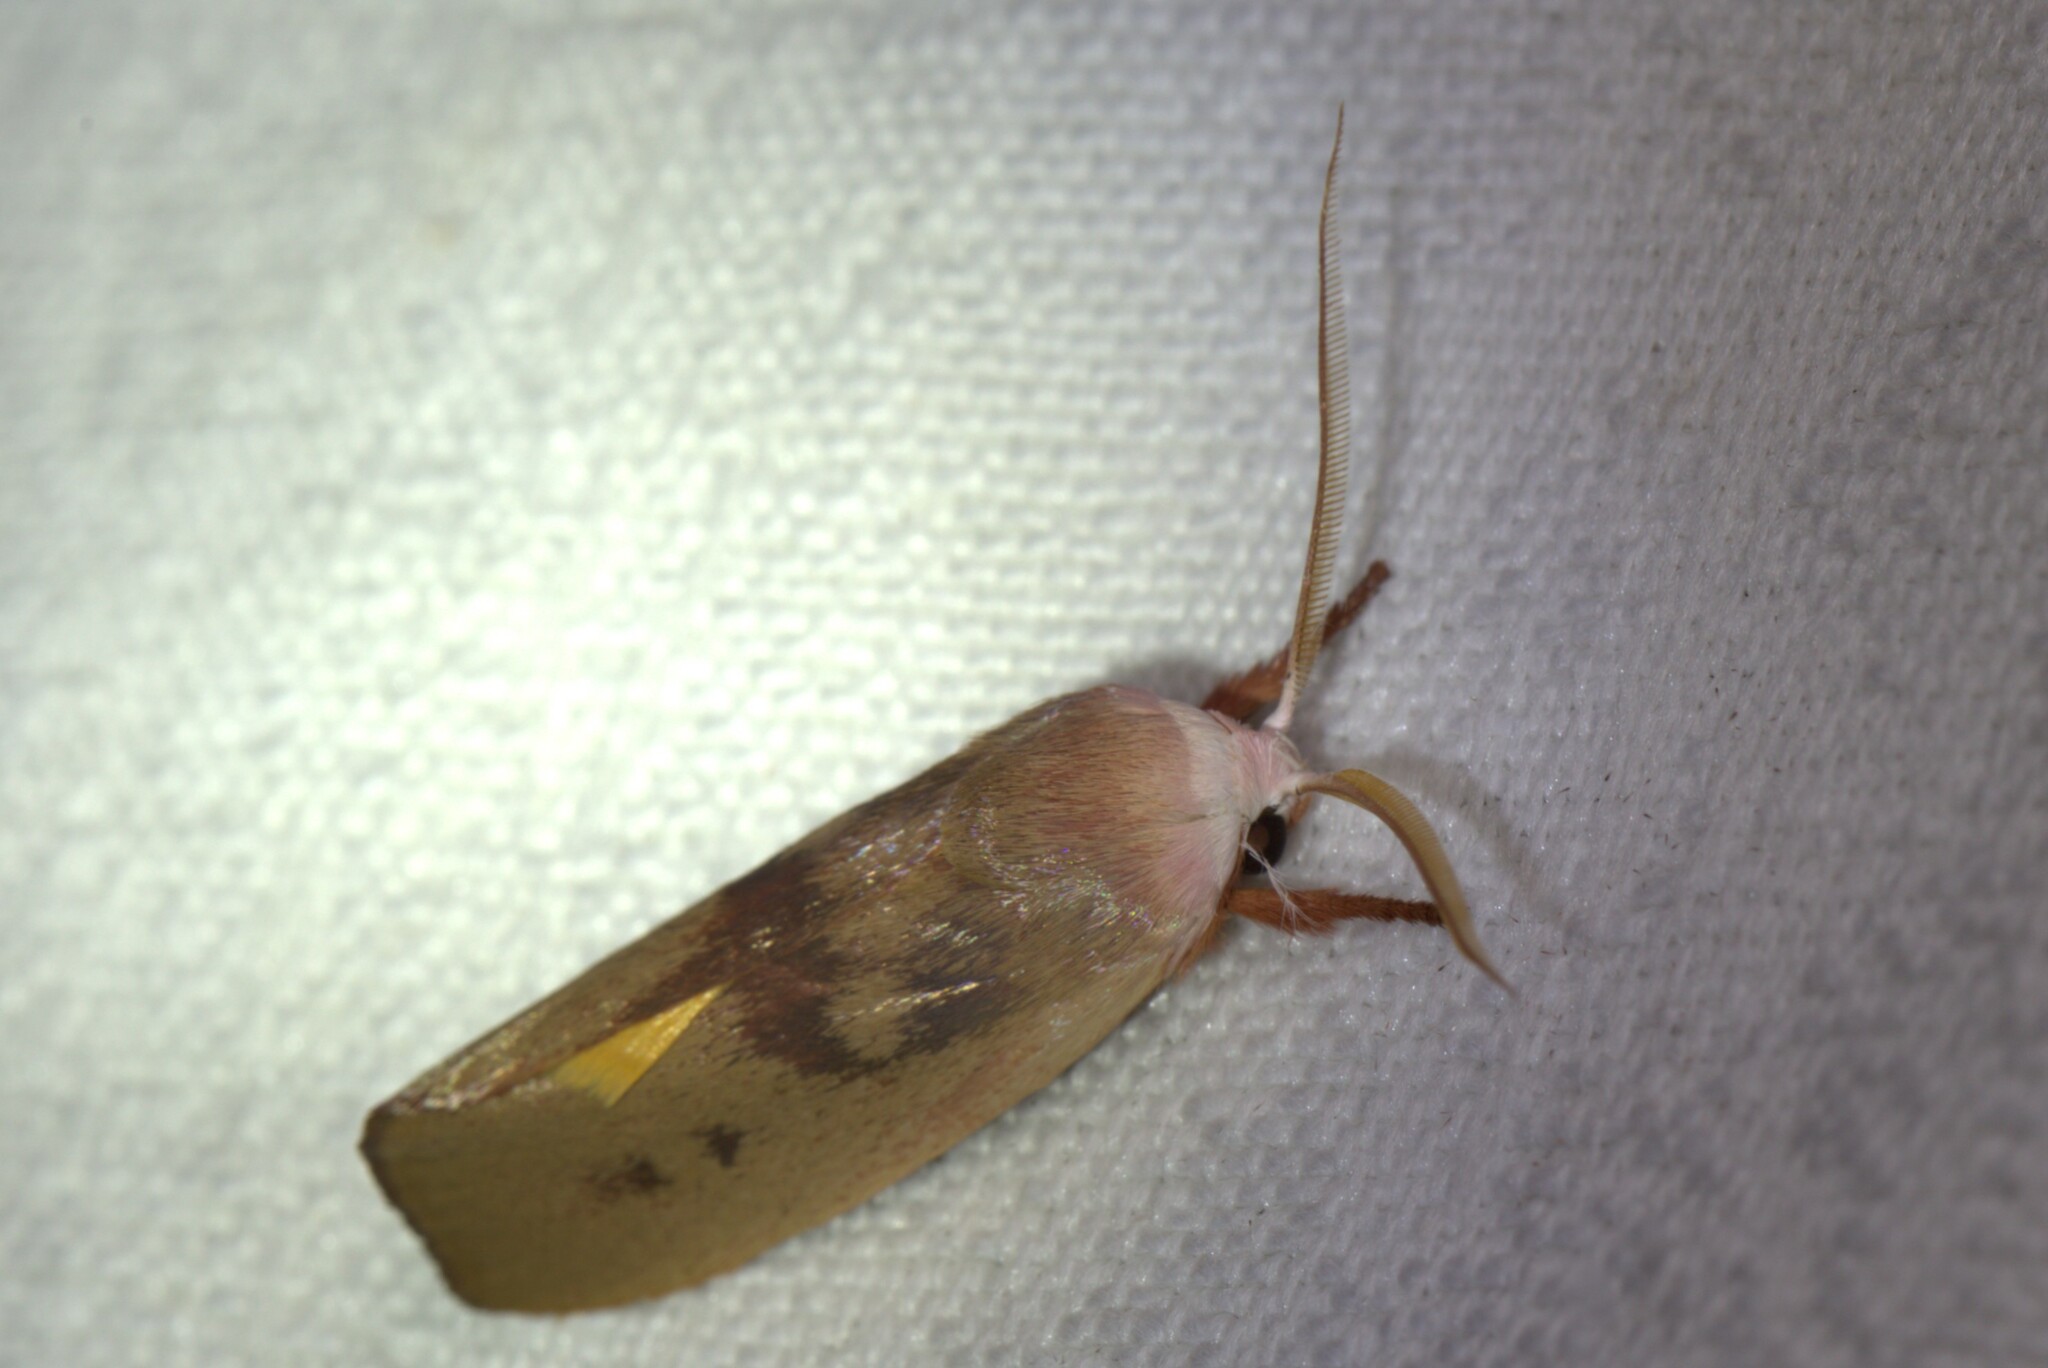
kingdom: Animalia
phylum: Arthropoda
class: Insecta
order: Lepidoptera
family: Xyloryctidae
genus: Cryptophasa
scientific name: Cryptophasa rubescens
